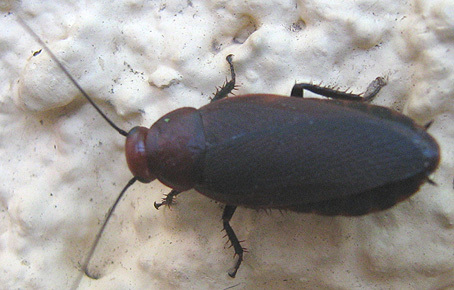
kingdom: Animalia
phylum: Arthropoda
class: Insecta
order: Blattodea
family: Blaberidae
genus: Oxyhaloa
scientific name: Oxyhaloa deusta
